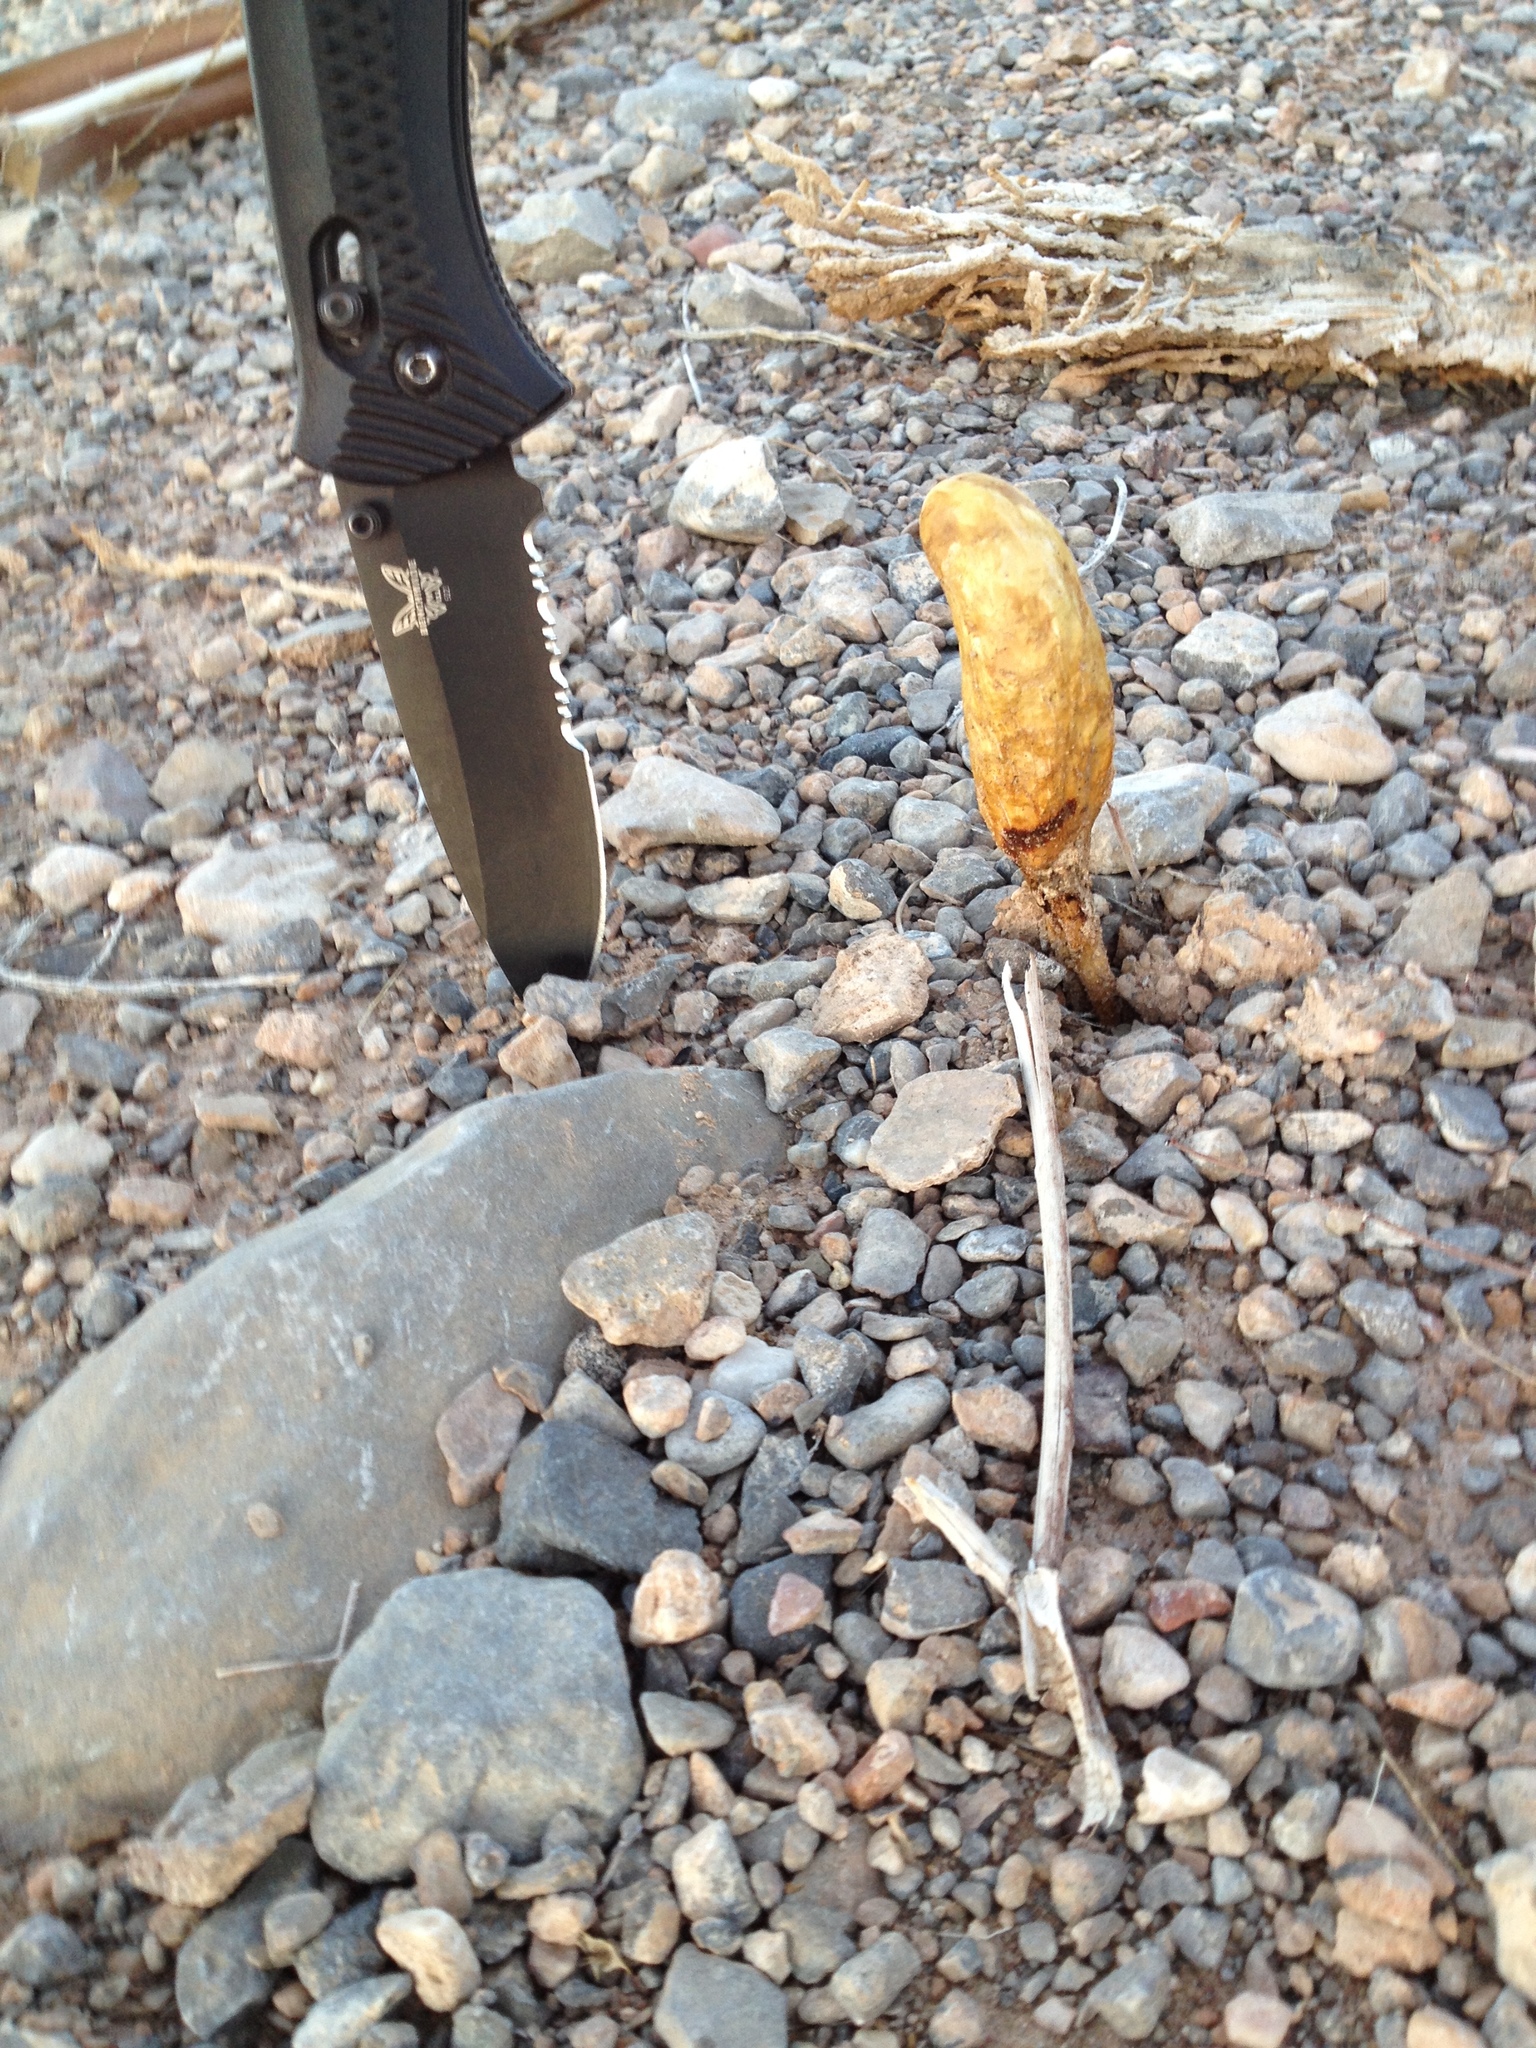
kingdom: Fungi
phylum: Basidiomycota
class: Agaricomycetes
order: Agaricales
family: Agaricaceae
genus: Podaxis
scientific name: Podaxis pistillaris
